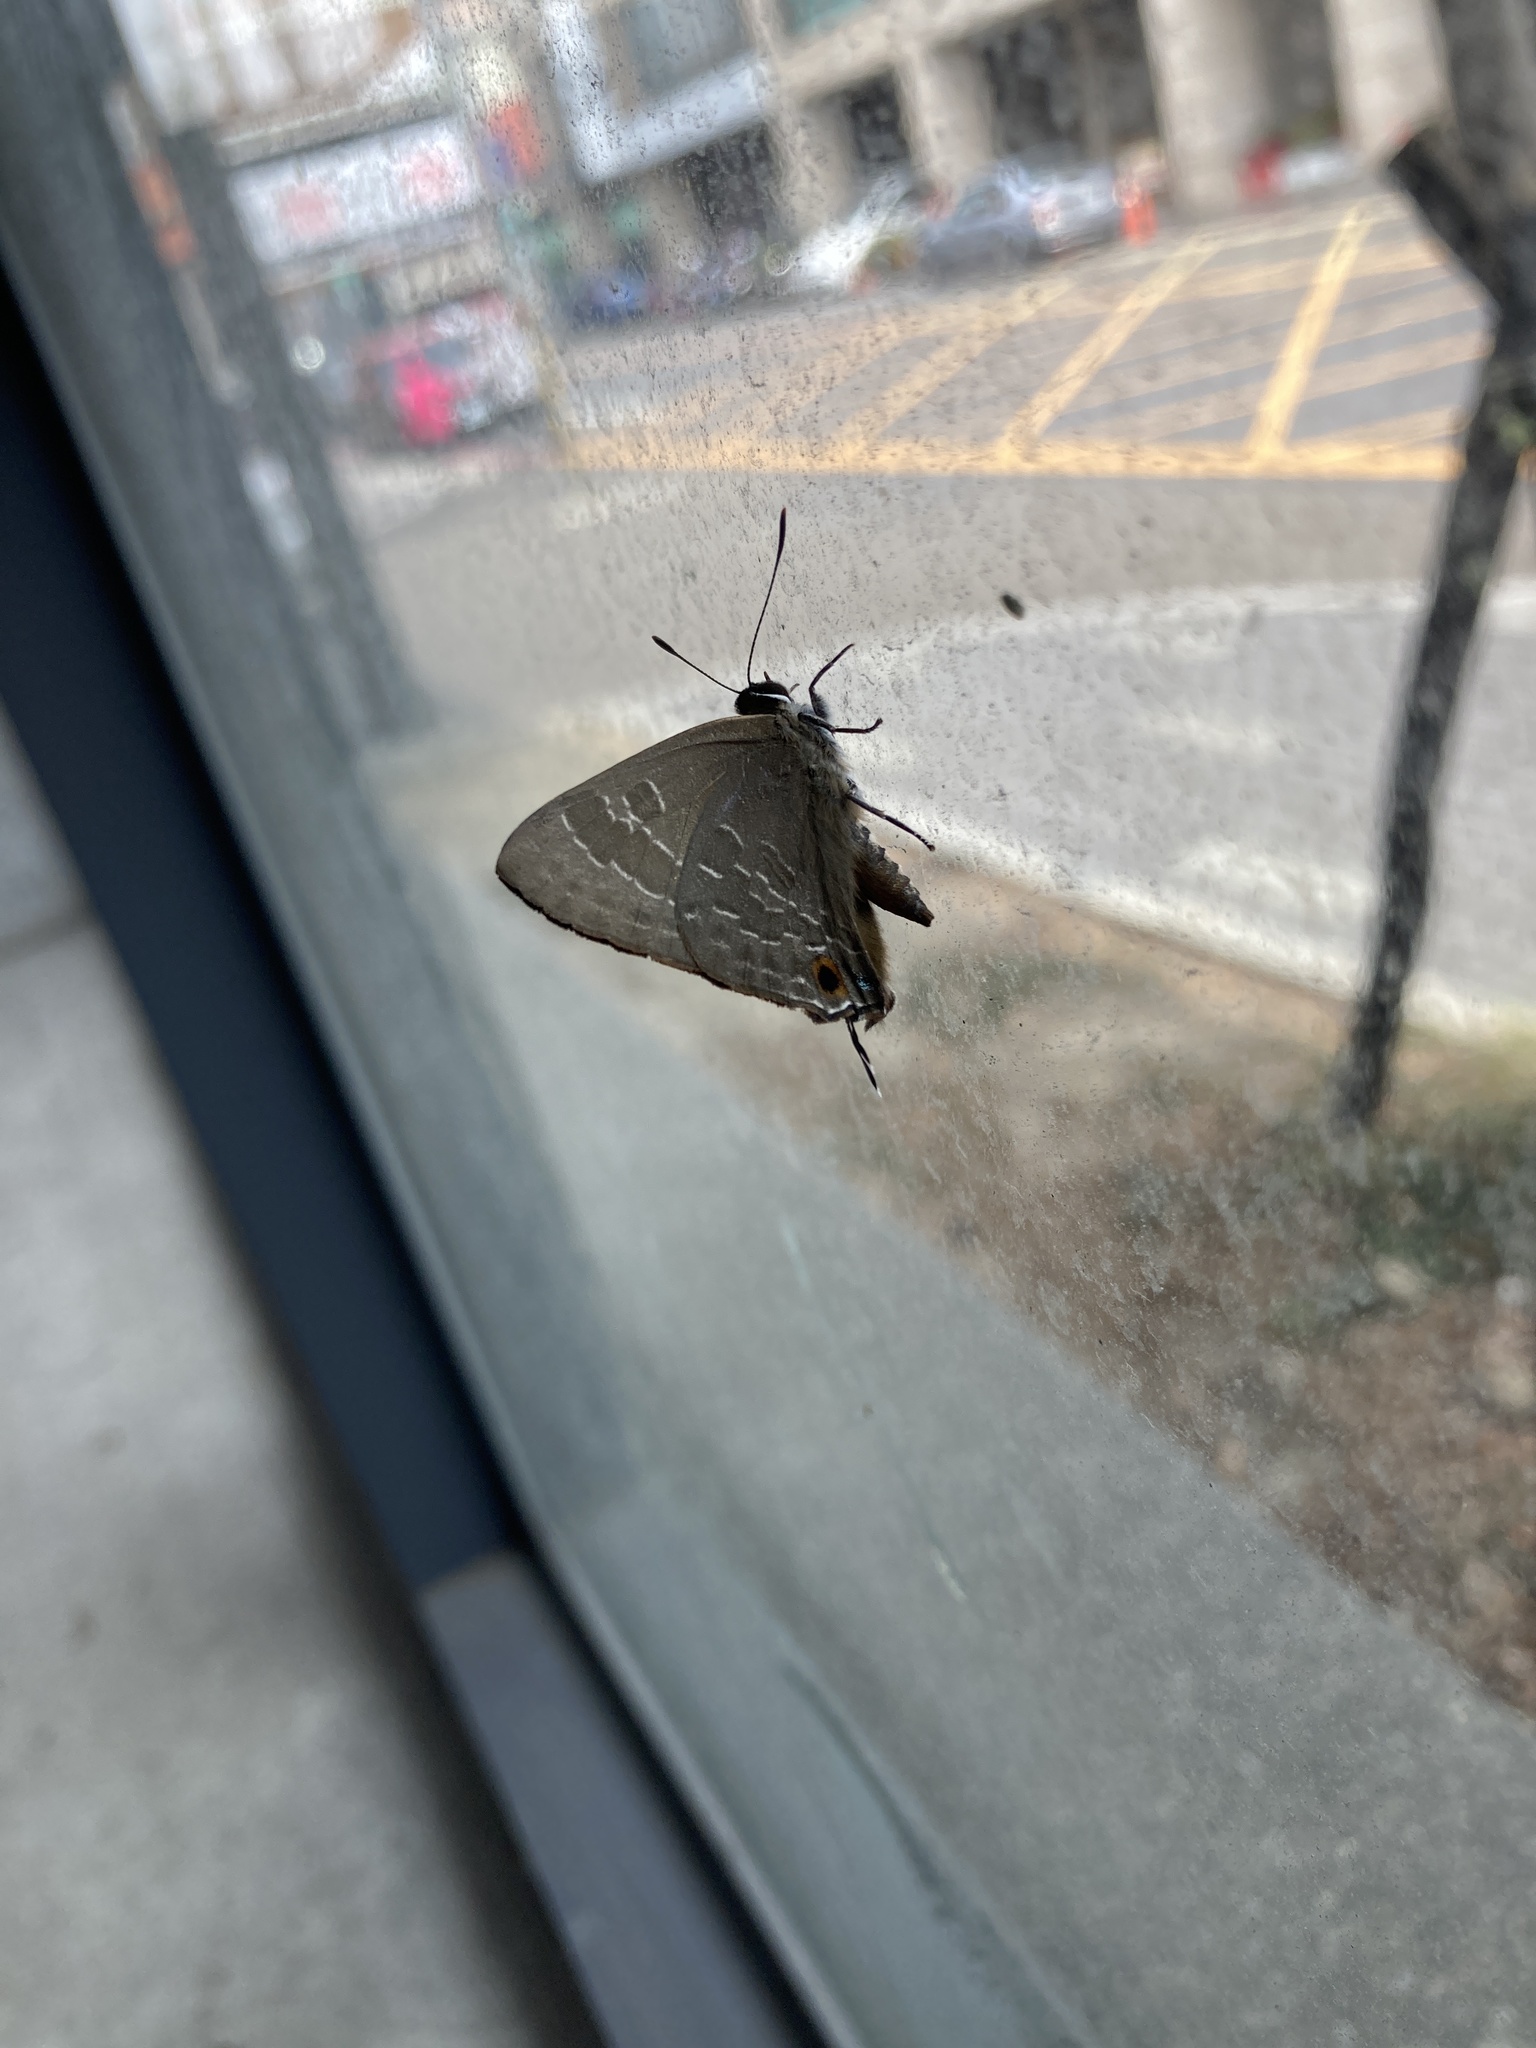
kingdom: Animalia
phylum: Arthropoda
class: Insecta
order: Lepidoptera
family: Lycaenidae
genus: Deudorix
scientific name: Deudorix epijarbas
